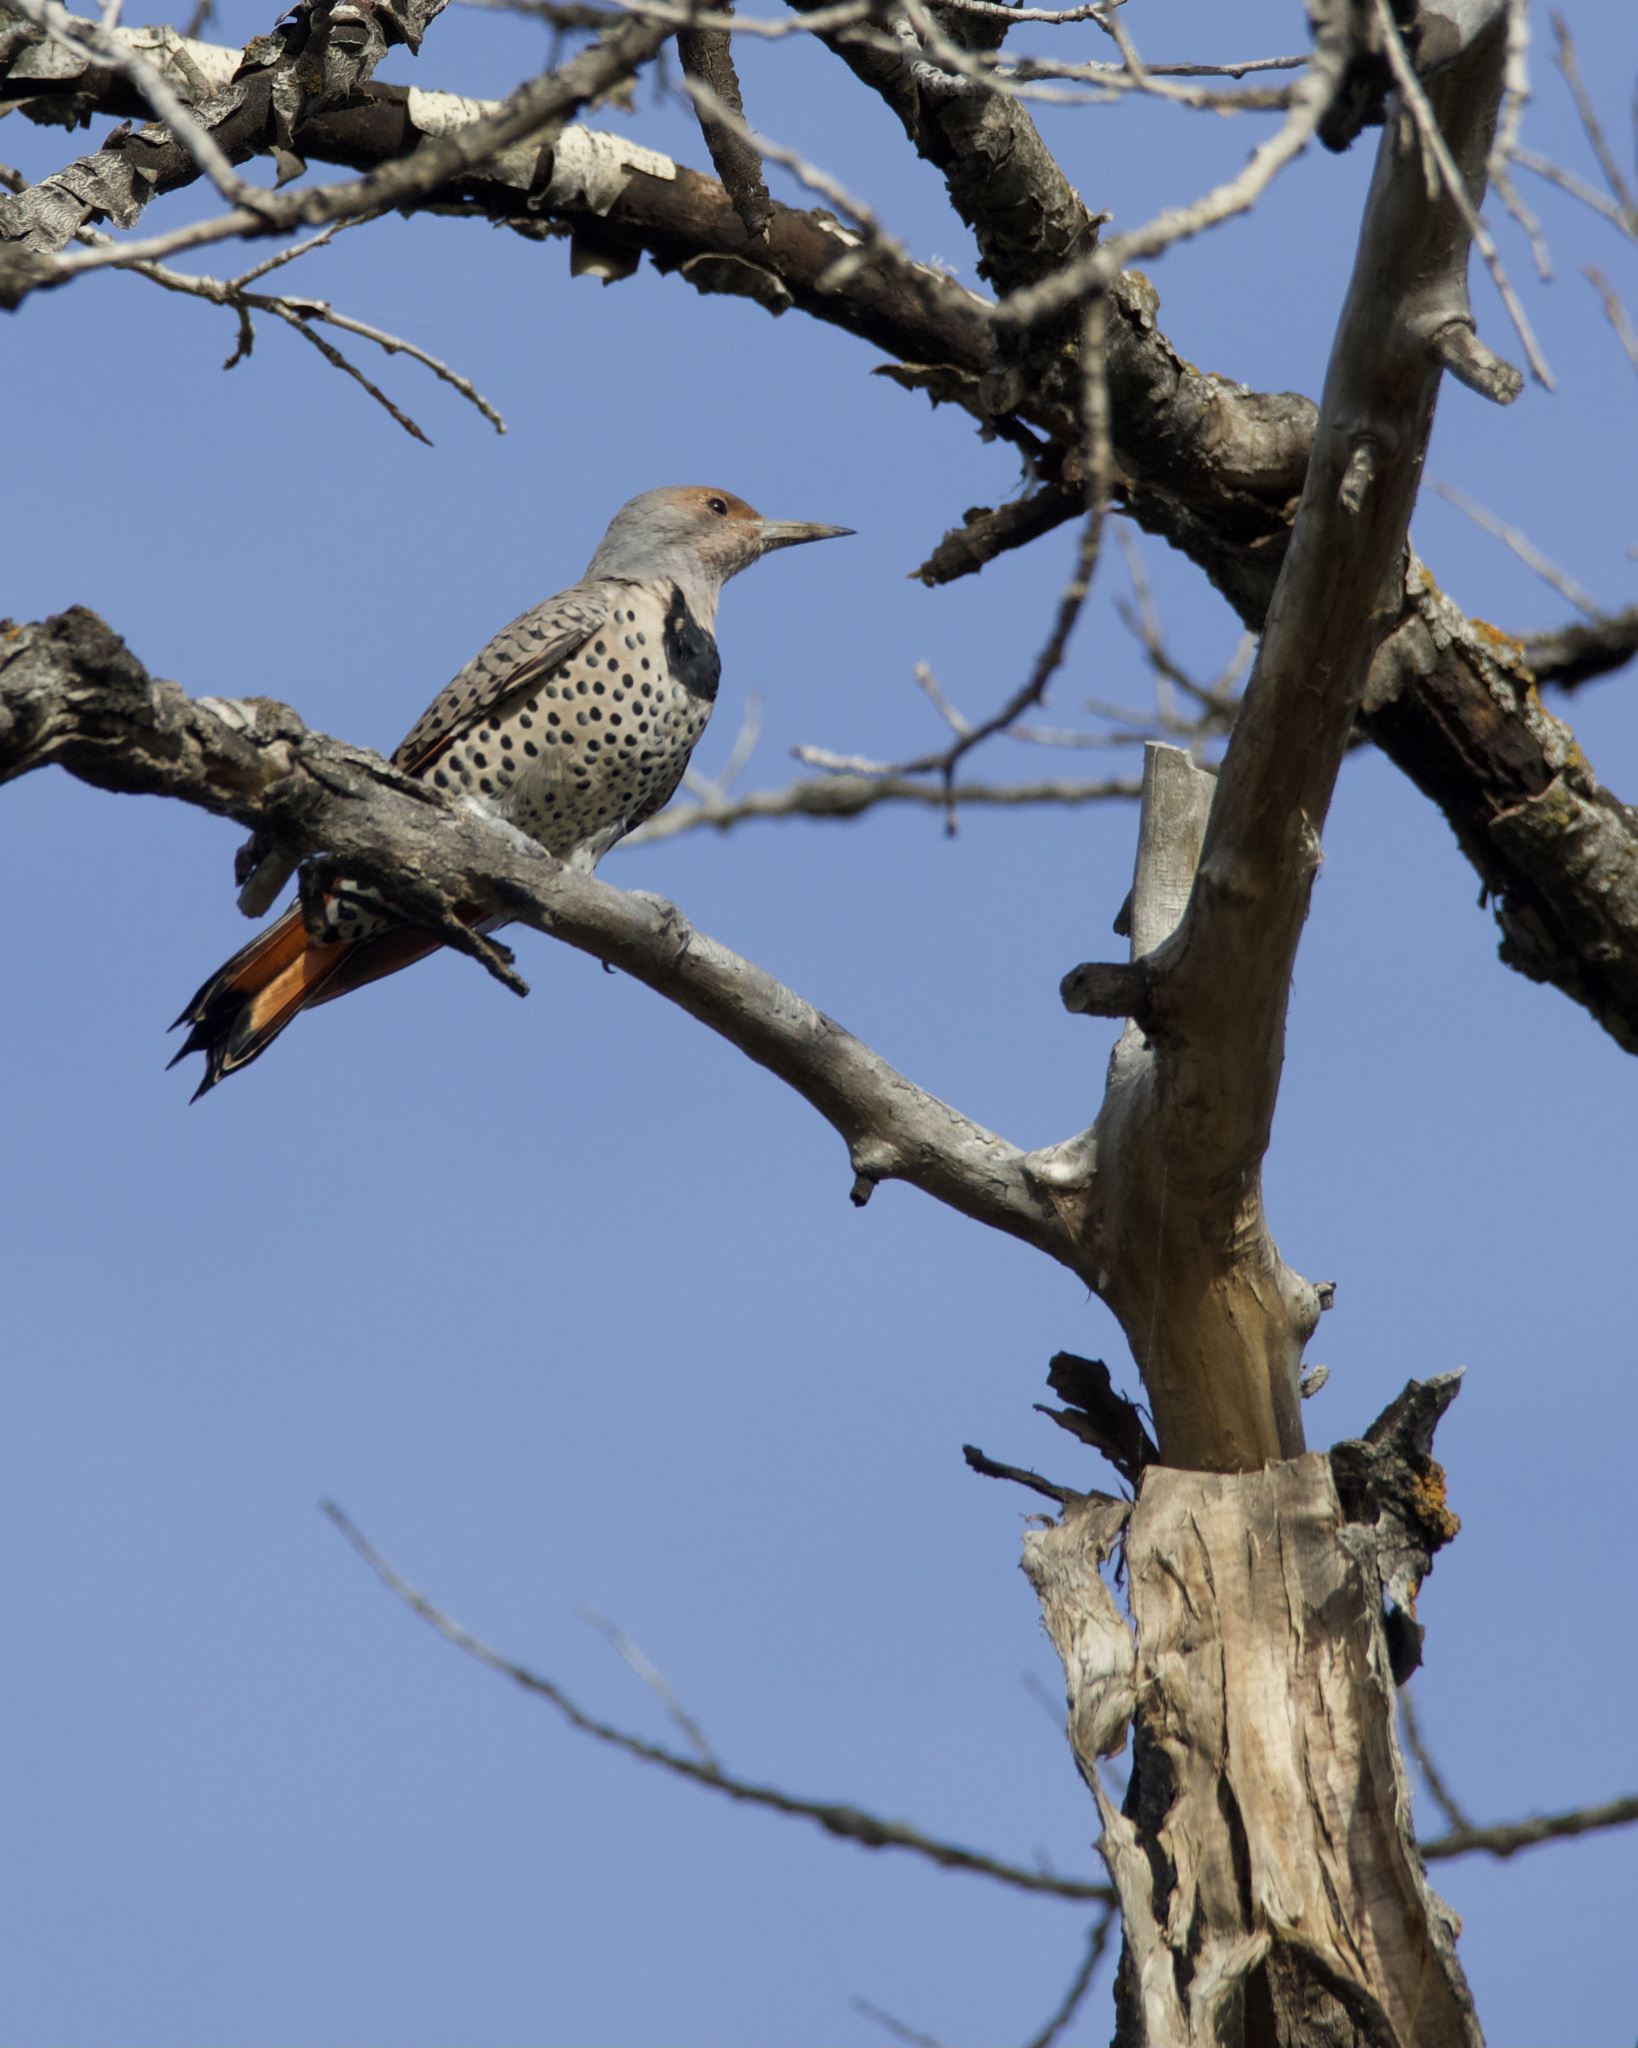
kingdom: Animalia
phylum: Chordata
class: Aves
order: Piciformes
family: Picidae
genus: Colaptes
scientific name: Colaptes auratus
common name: Northern flicker
